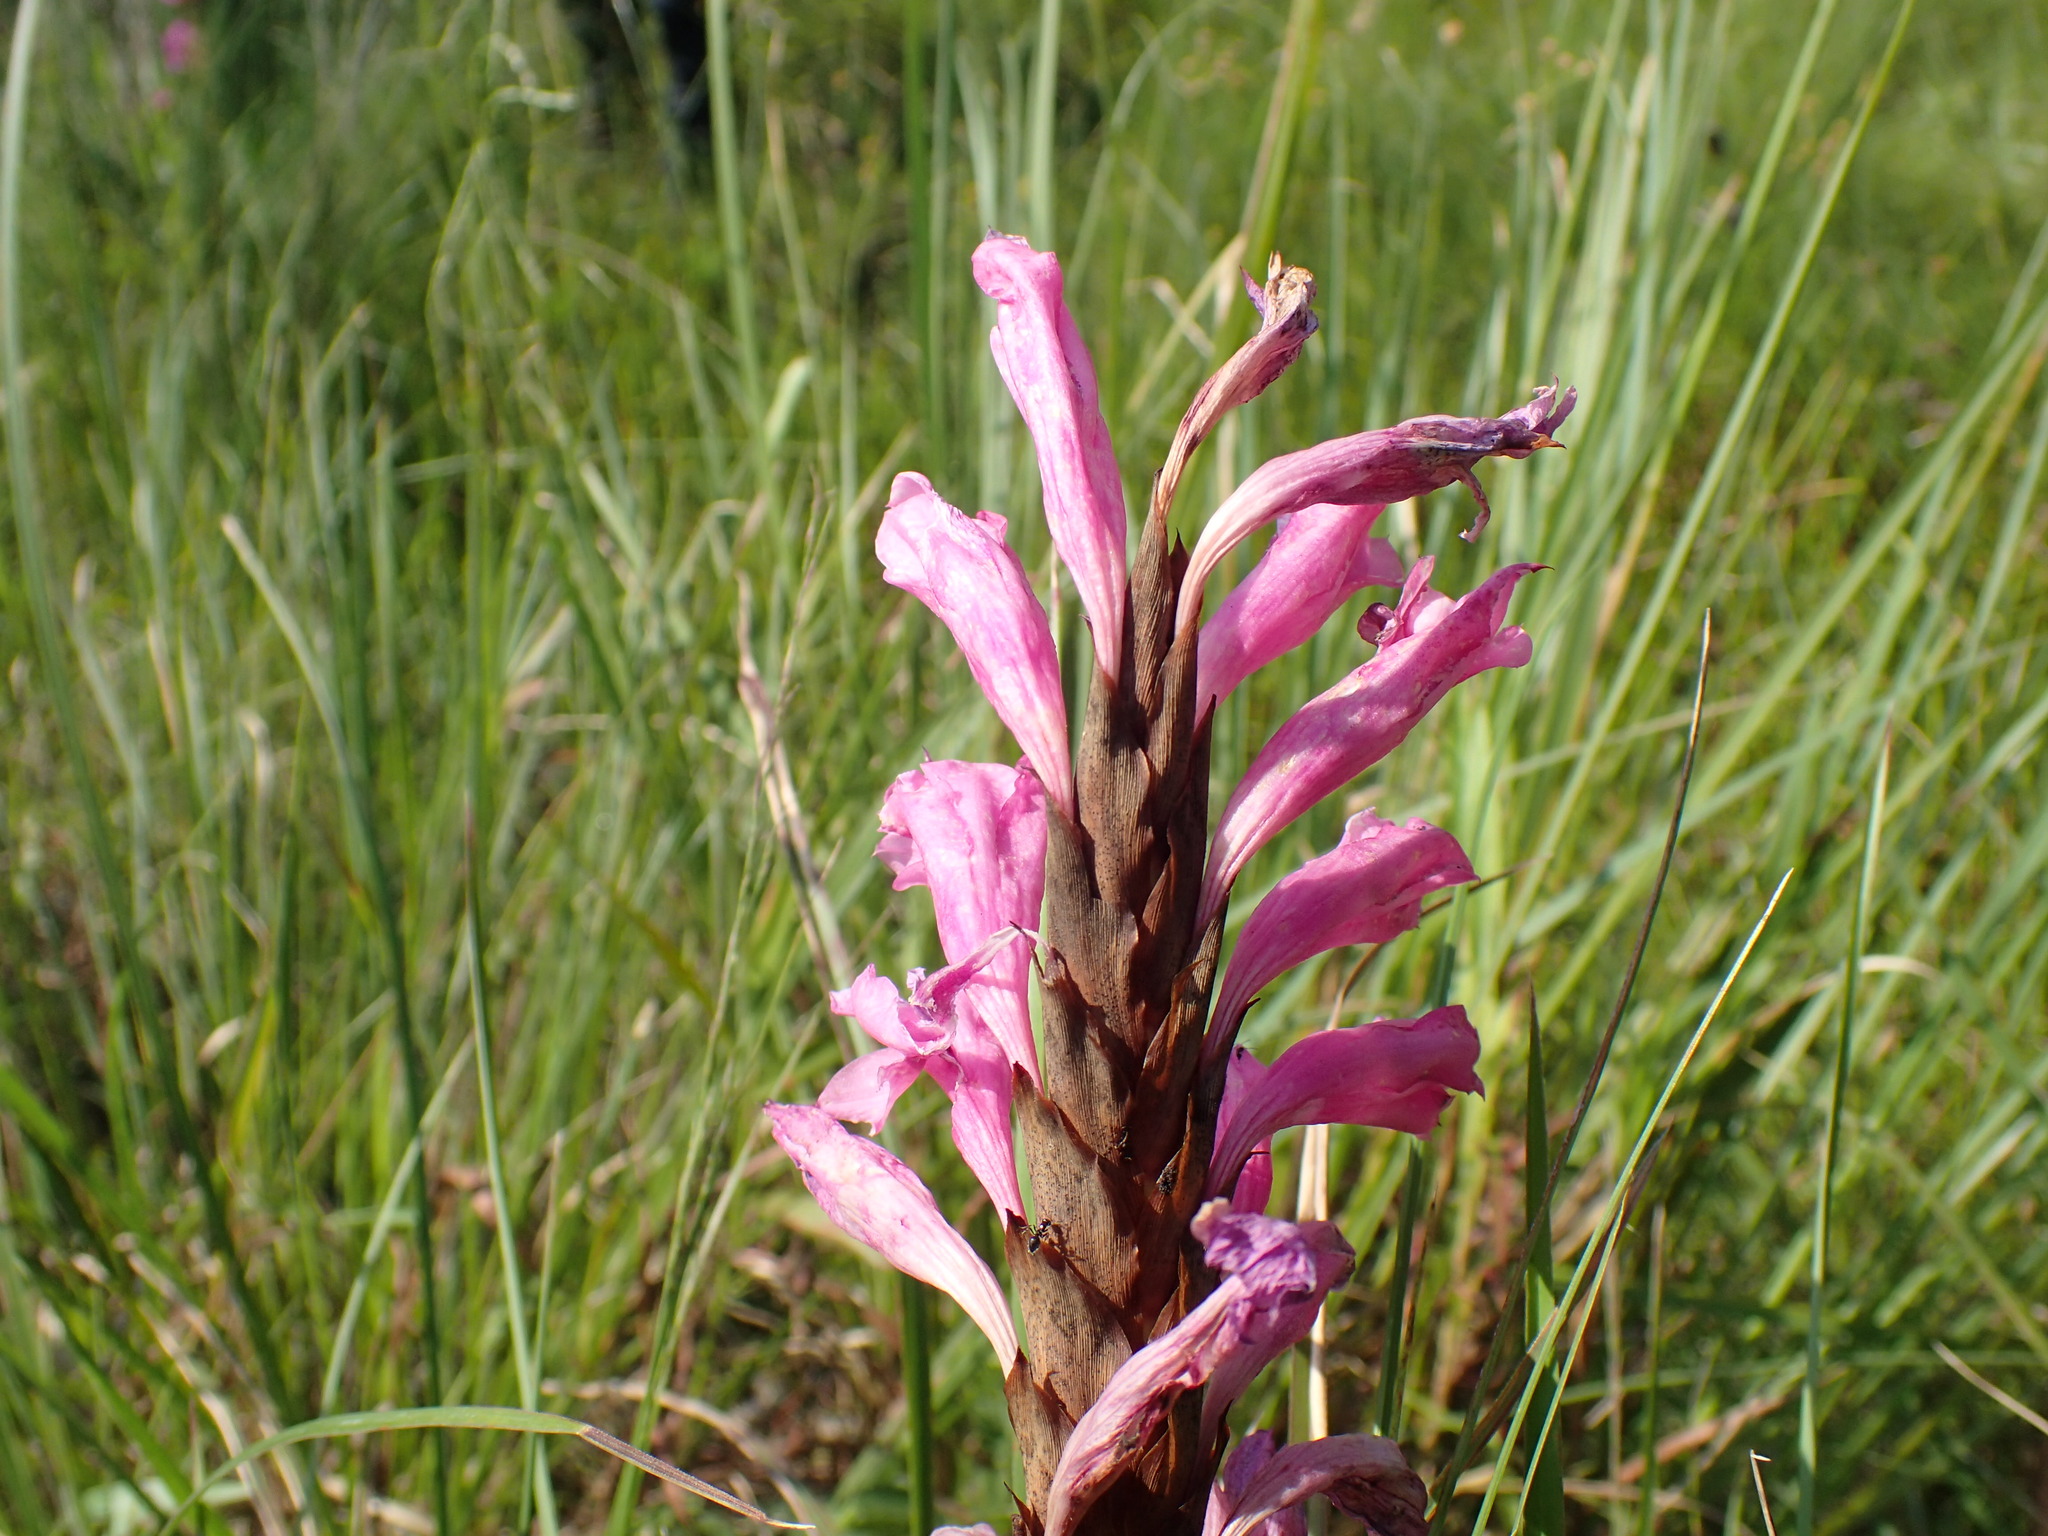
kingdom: Plantae
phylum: Tracheophyta
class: Liliopsida
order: Asparagales
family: Iridaceae
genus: Watsonia
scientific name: Watsonia densiflora
